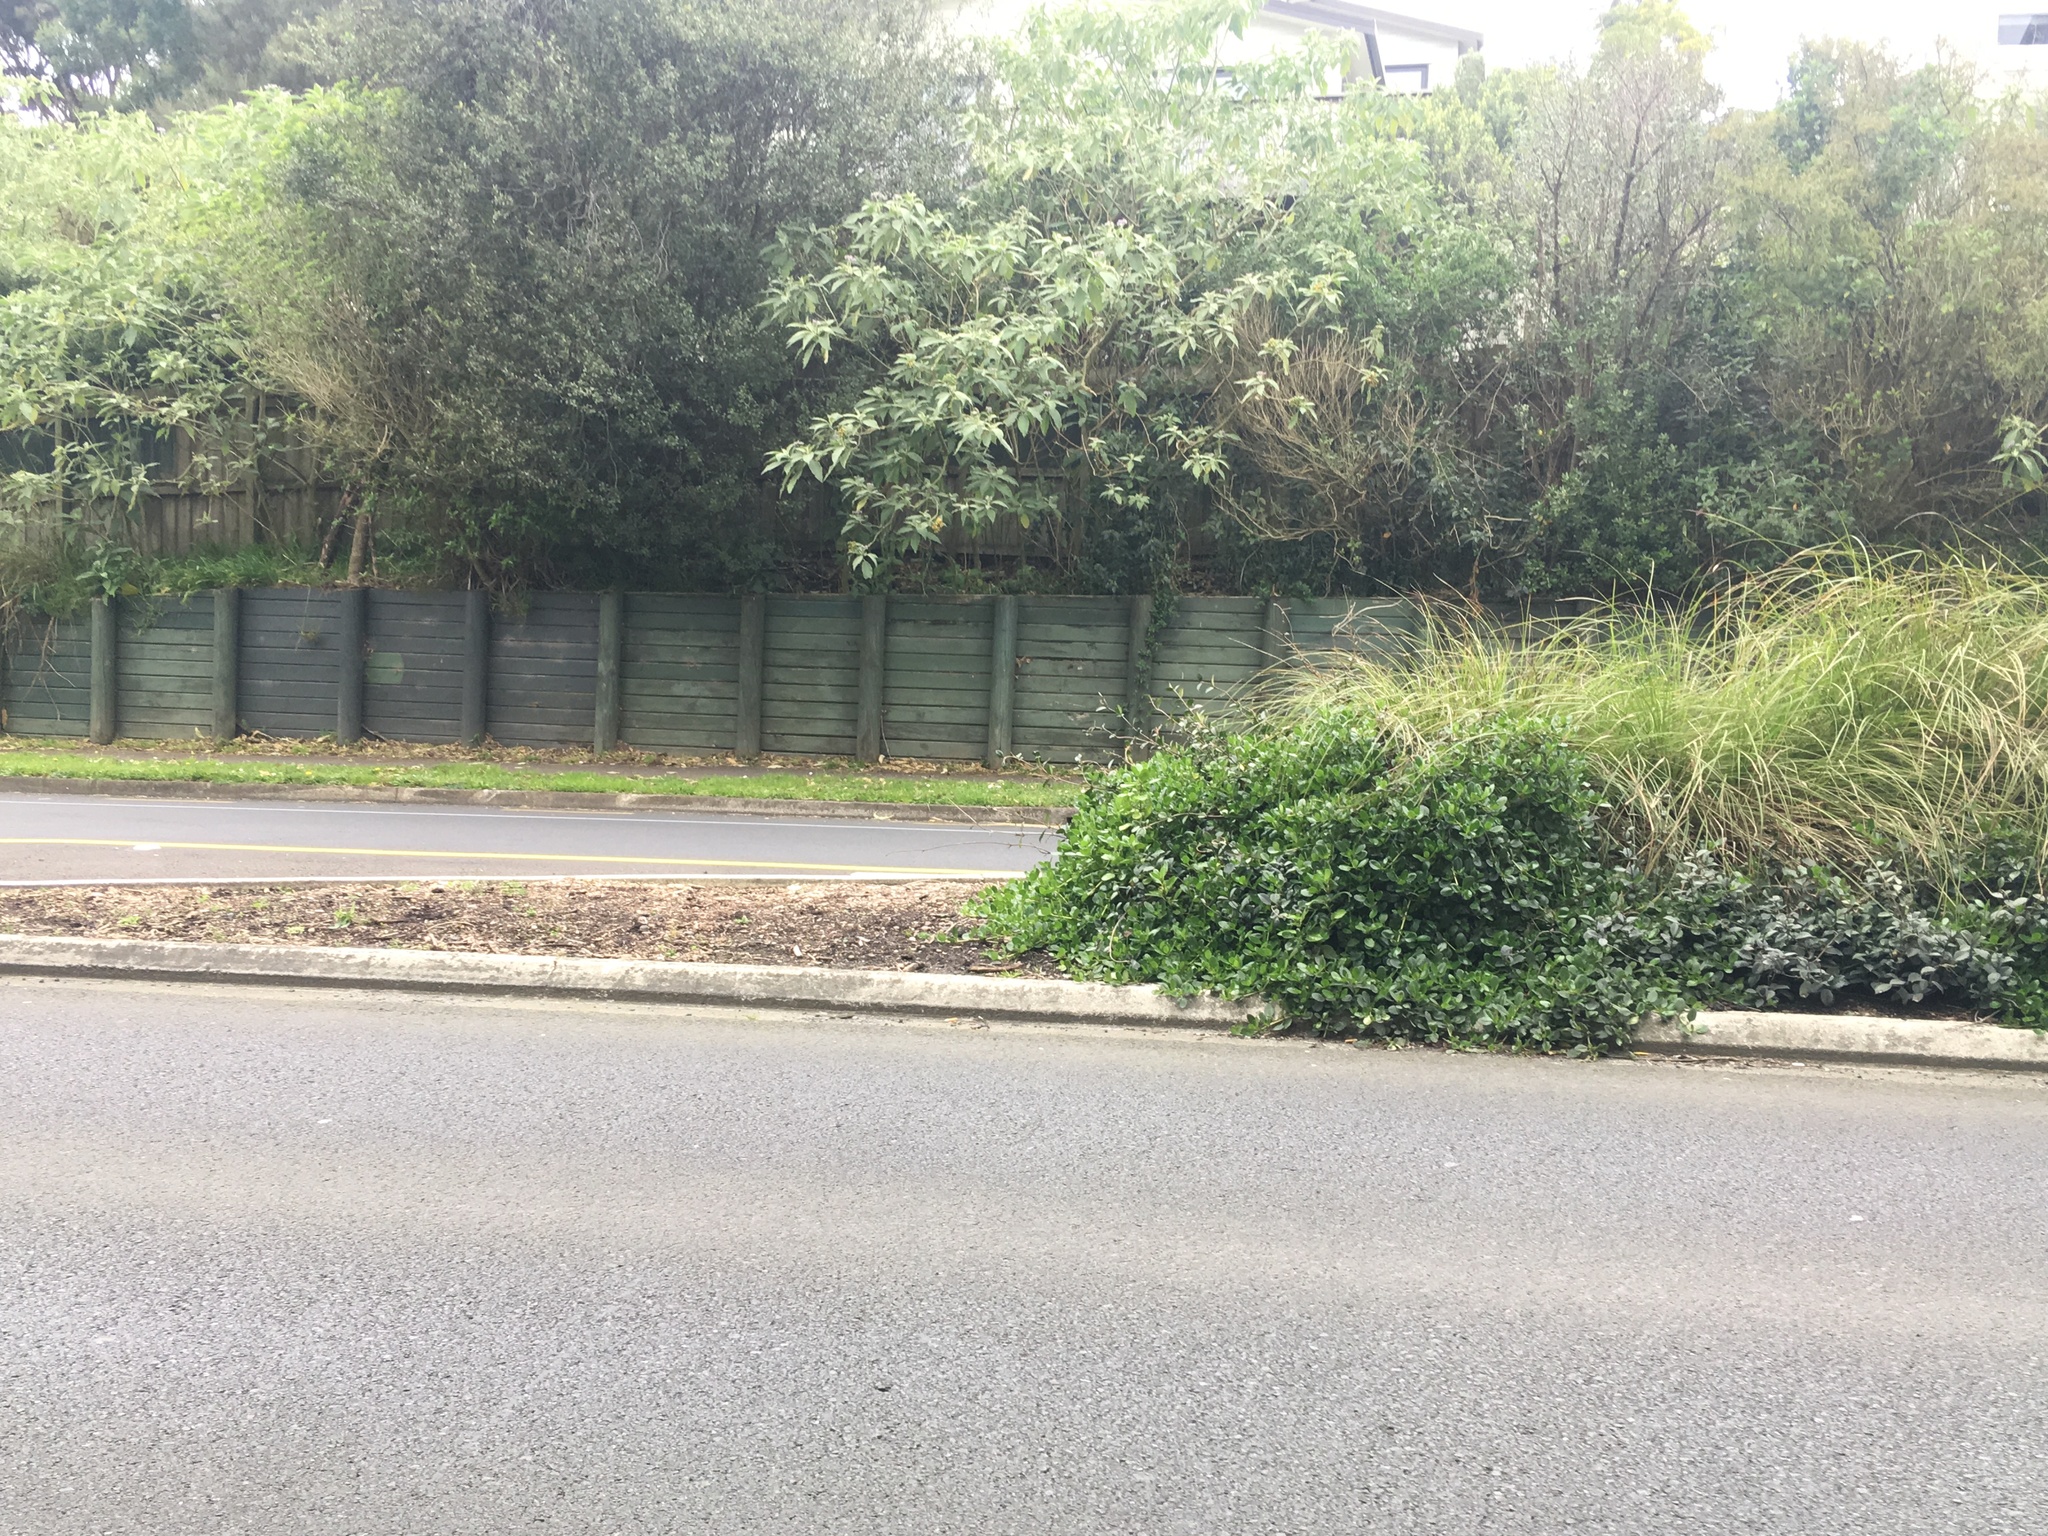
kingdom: Plantae
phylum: Tracheophyta
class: Magnoliopsida
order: Solanales
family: Solanaceae
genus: Solanum
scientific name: Solanum mauritianum
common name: Earleaf nightshade
